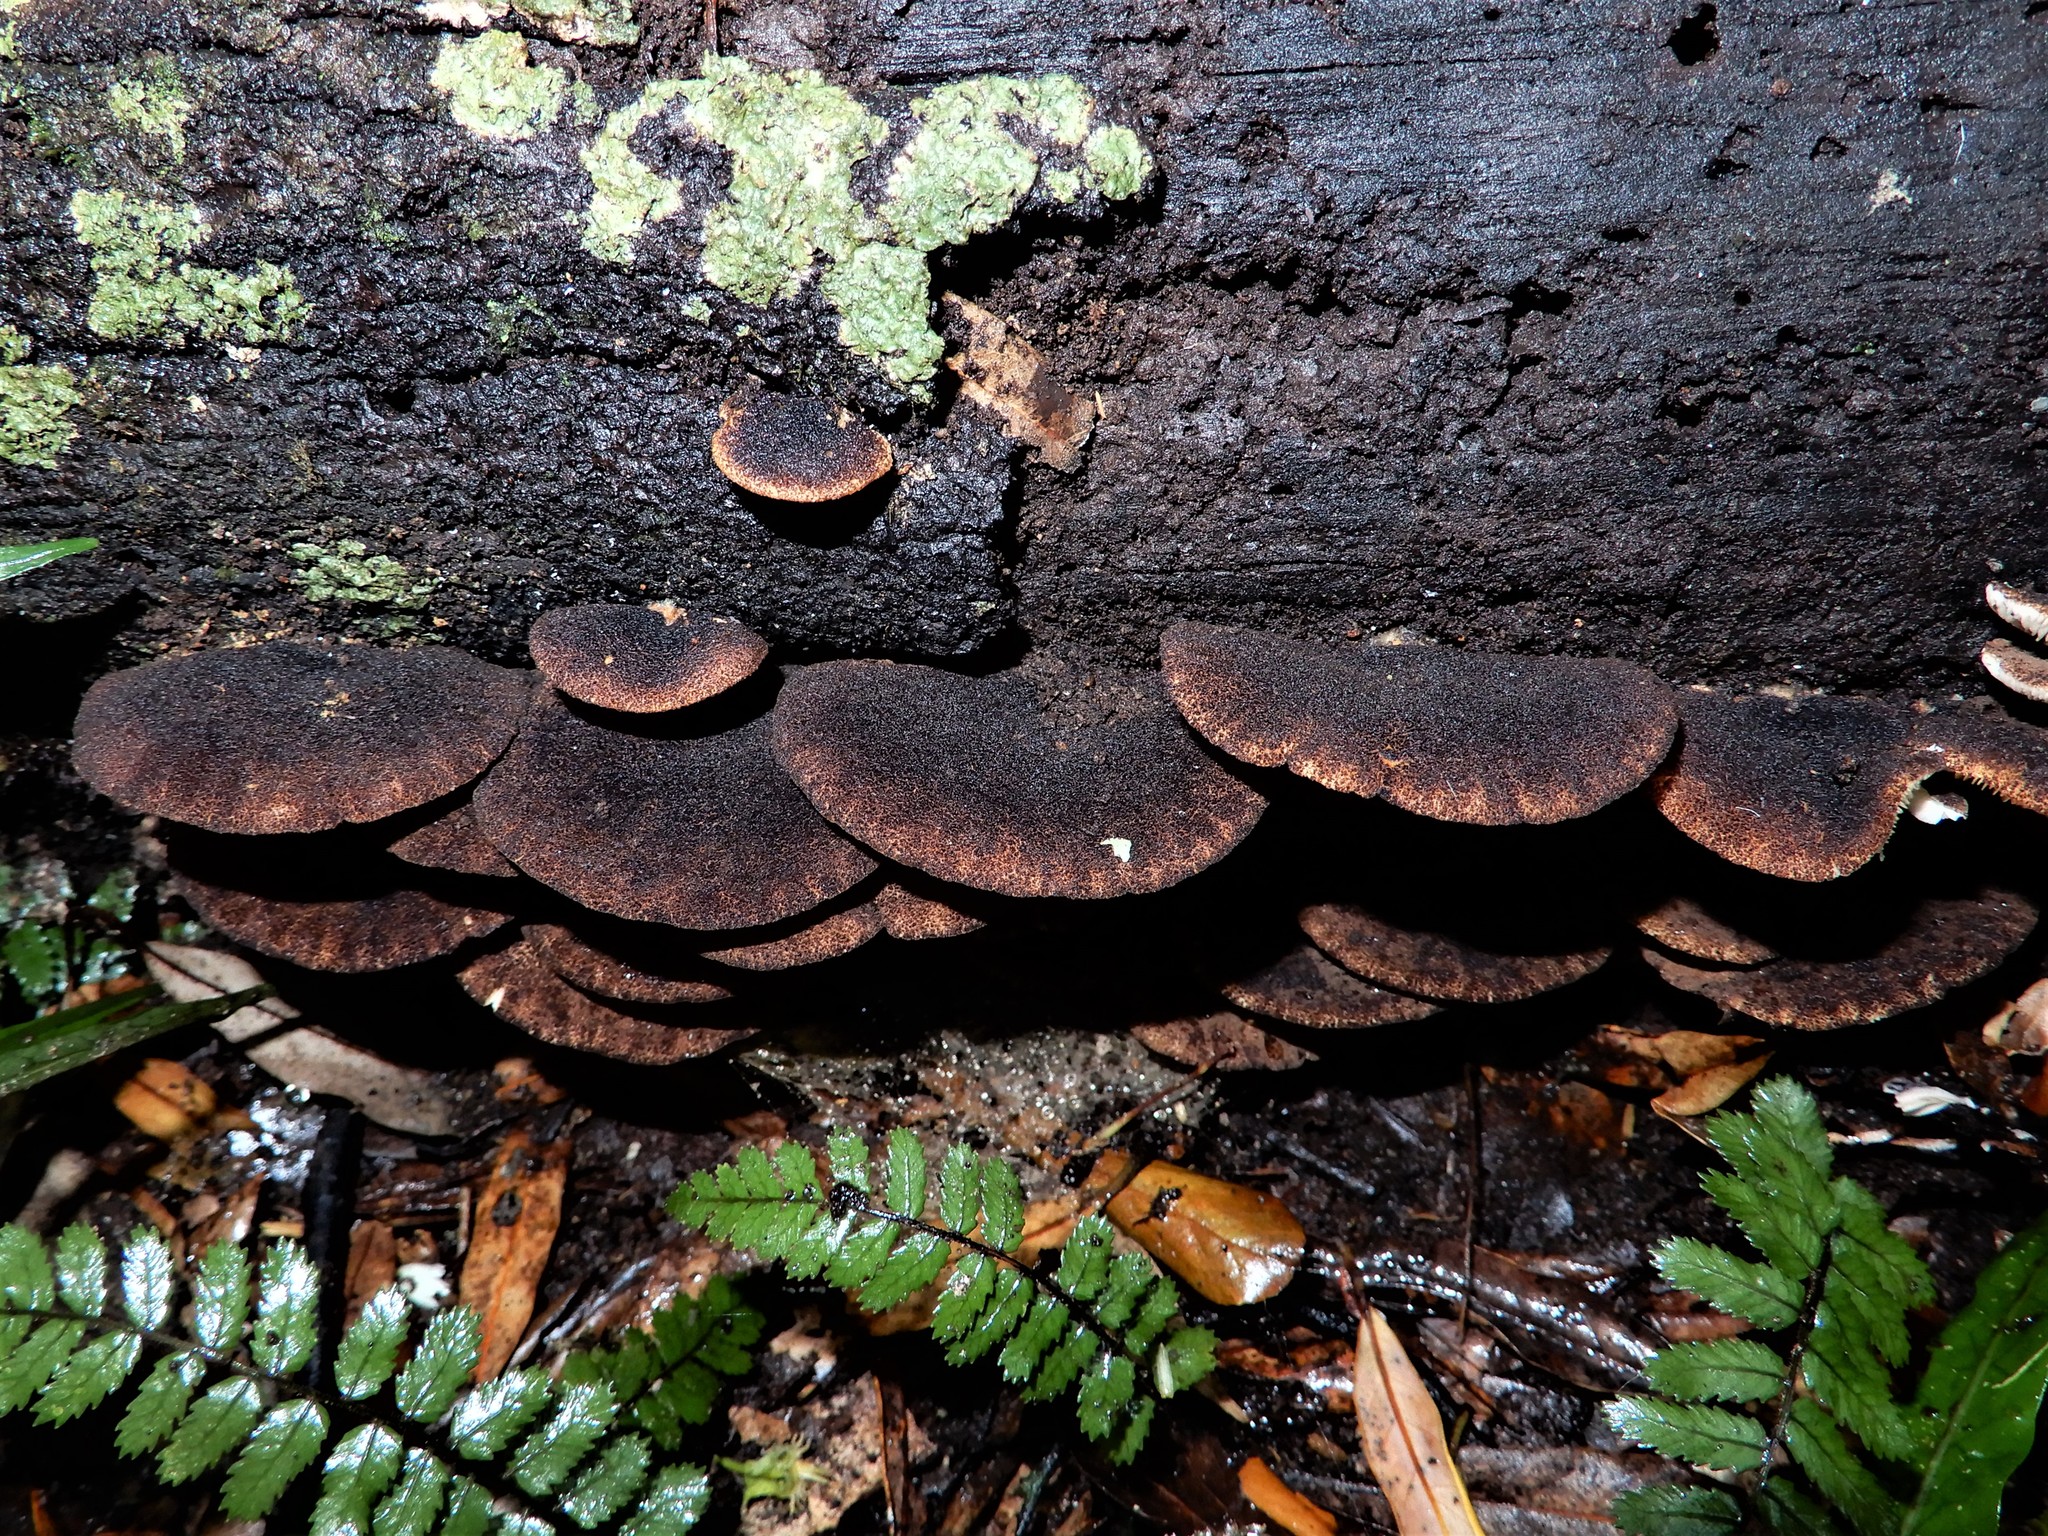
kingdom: Fungi
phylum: Basidiomycota
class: Agaricomycetes
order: Agaricales
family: Crepidotaceae
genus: Crepidotus
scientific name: Crepidotus fuscovelutinus
